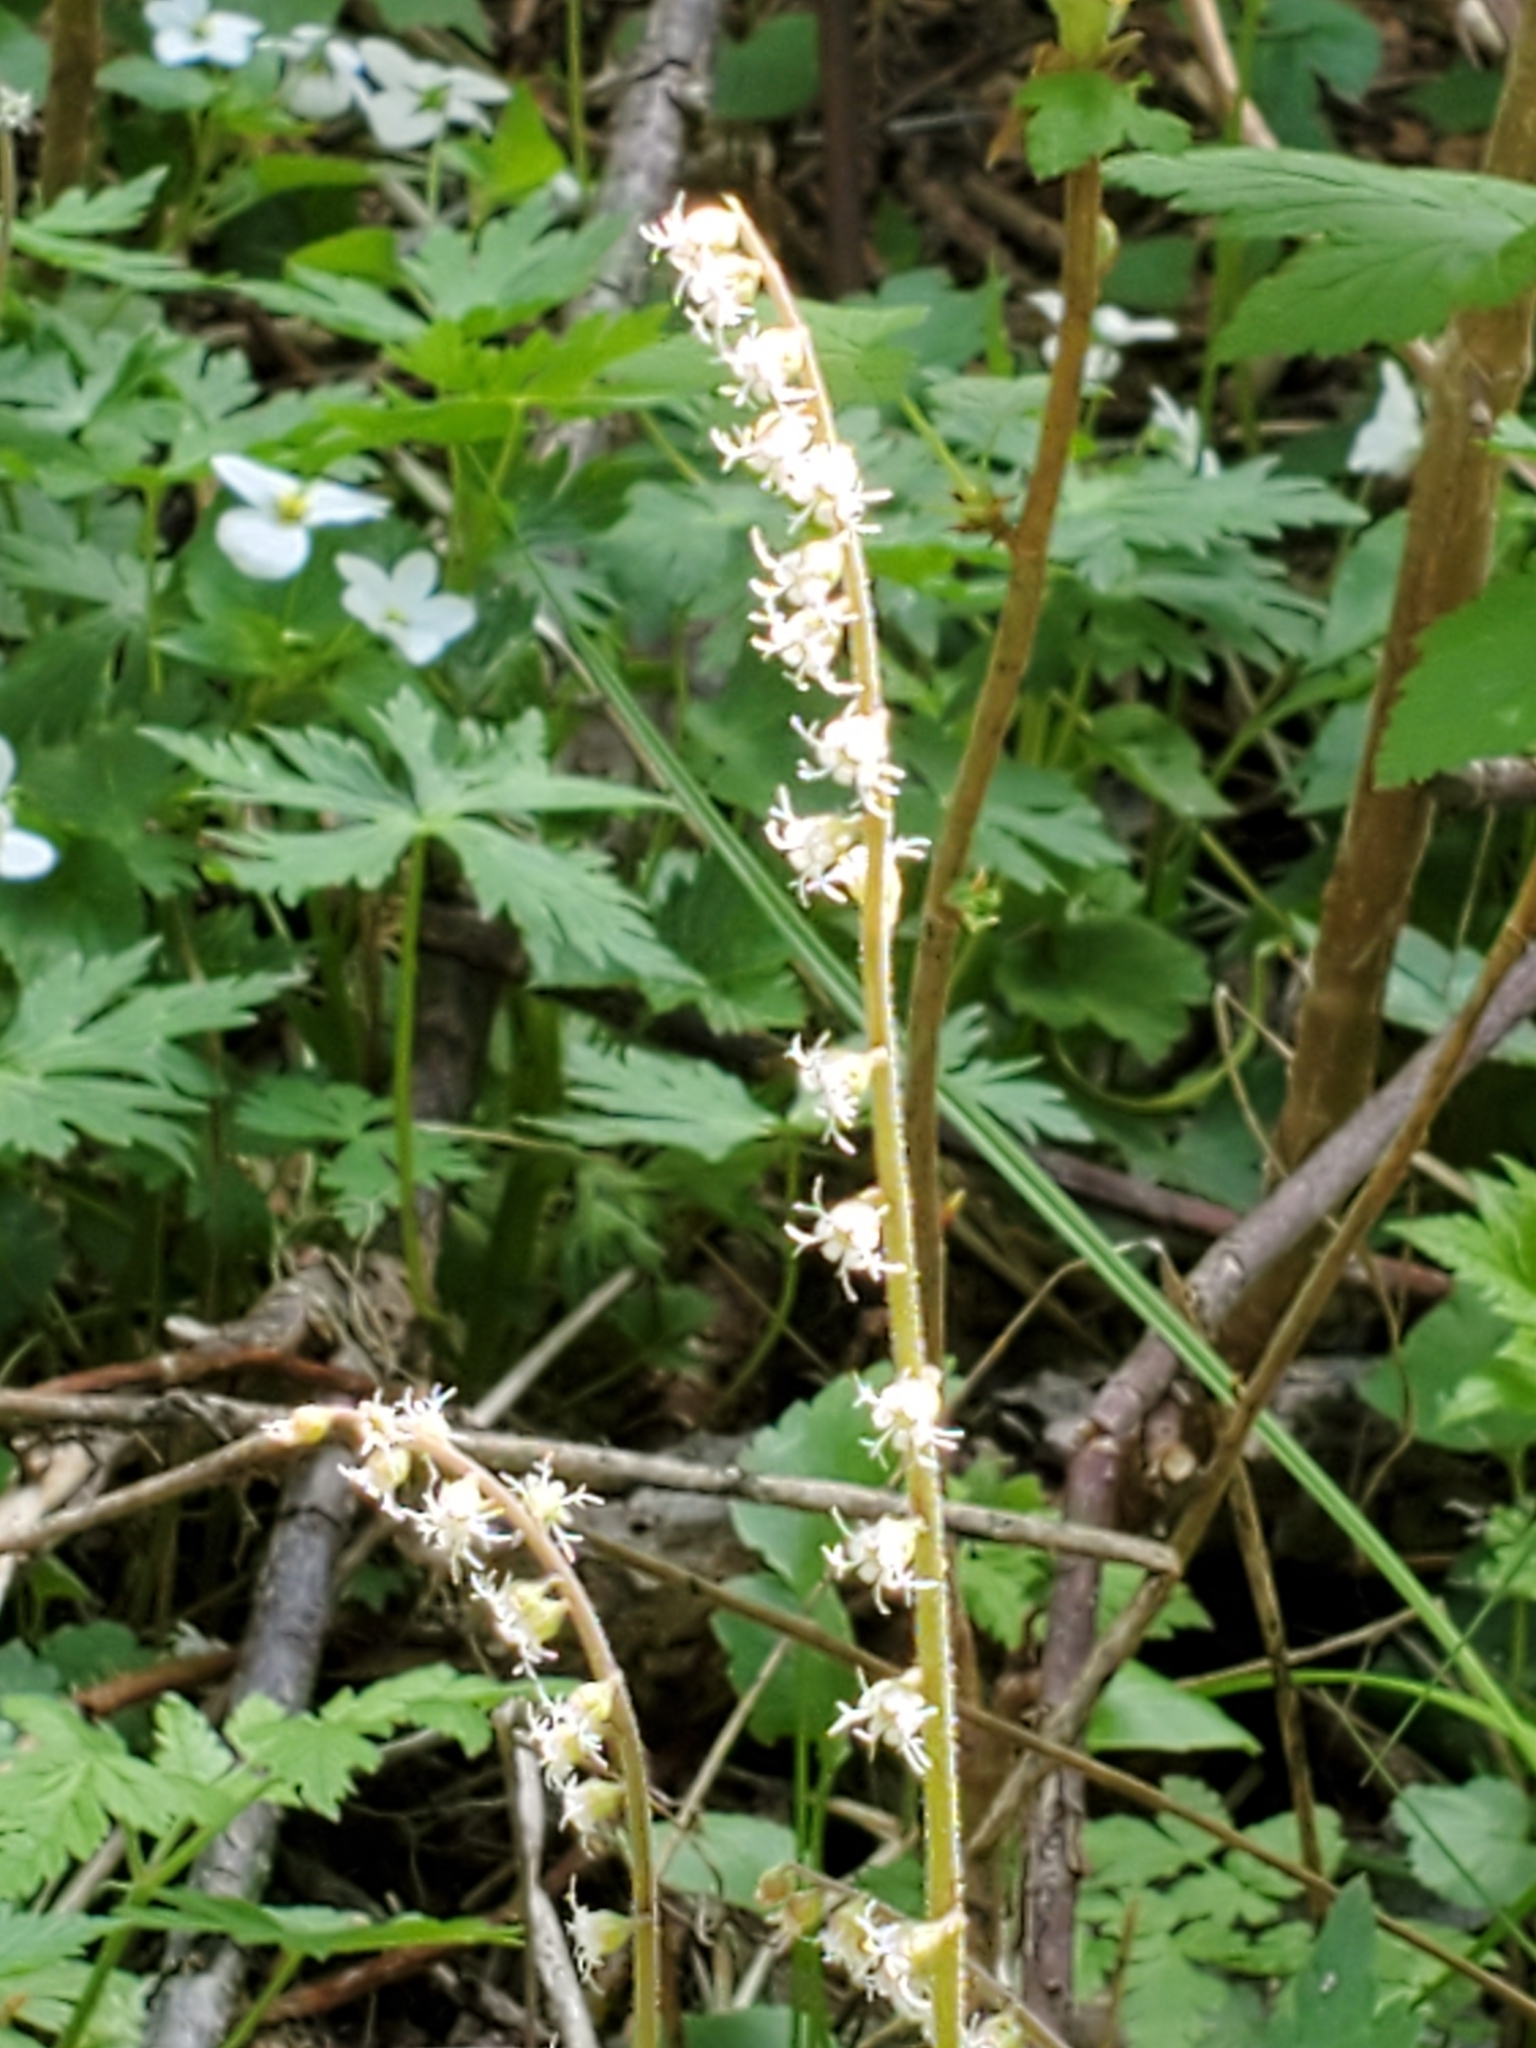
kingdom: Plantae
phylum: Tracheophyta
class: Magnoliopsida
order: Saxifragales
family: Saxifragaceae
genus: Ozomelis
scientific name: Ozomelis stauropetala
